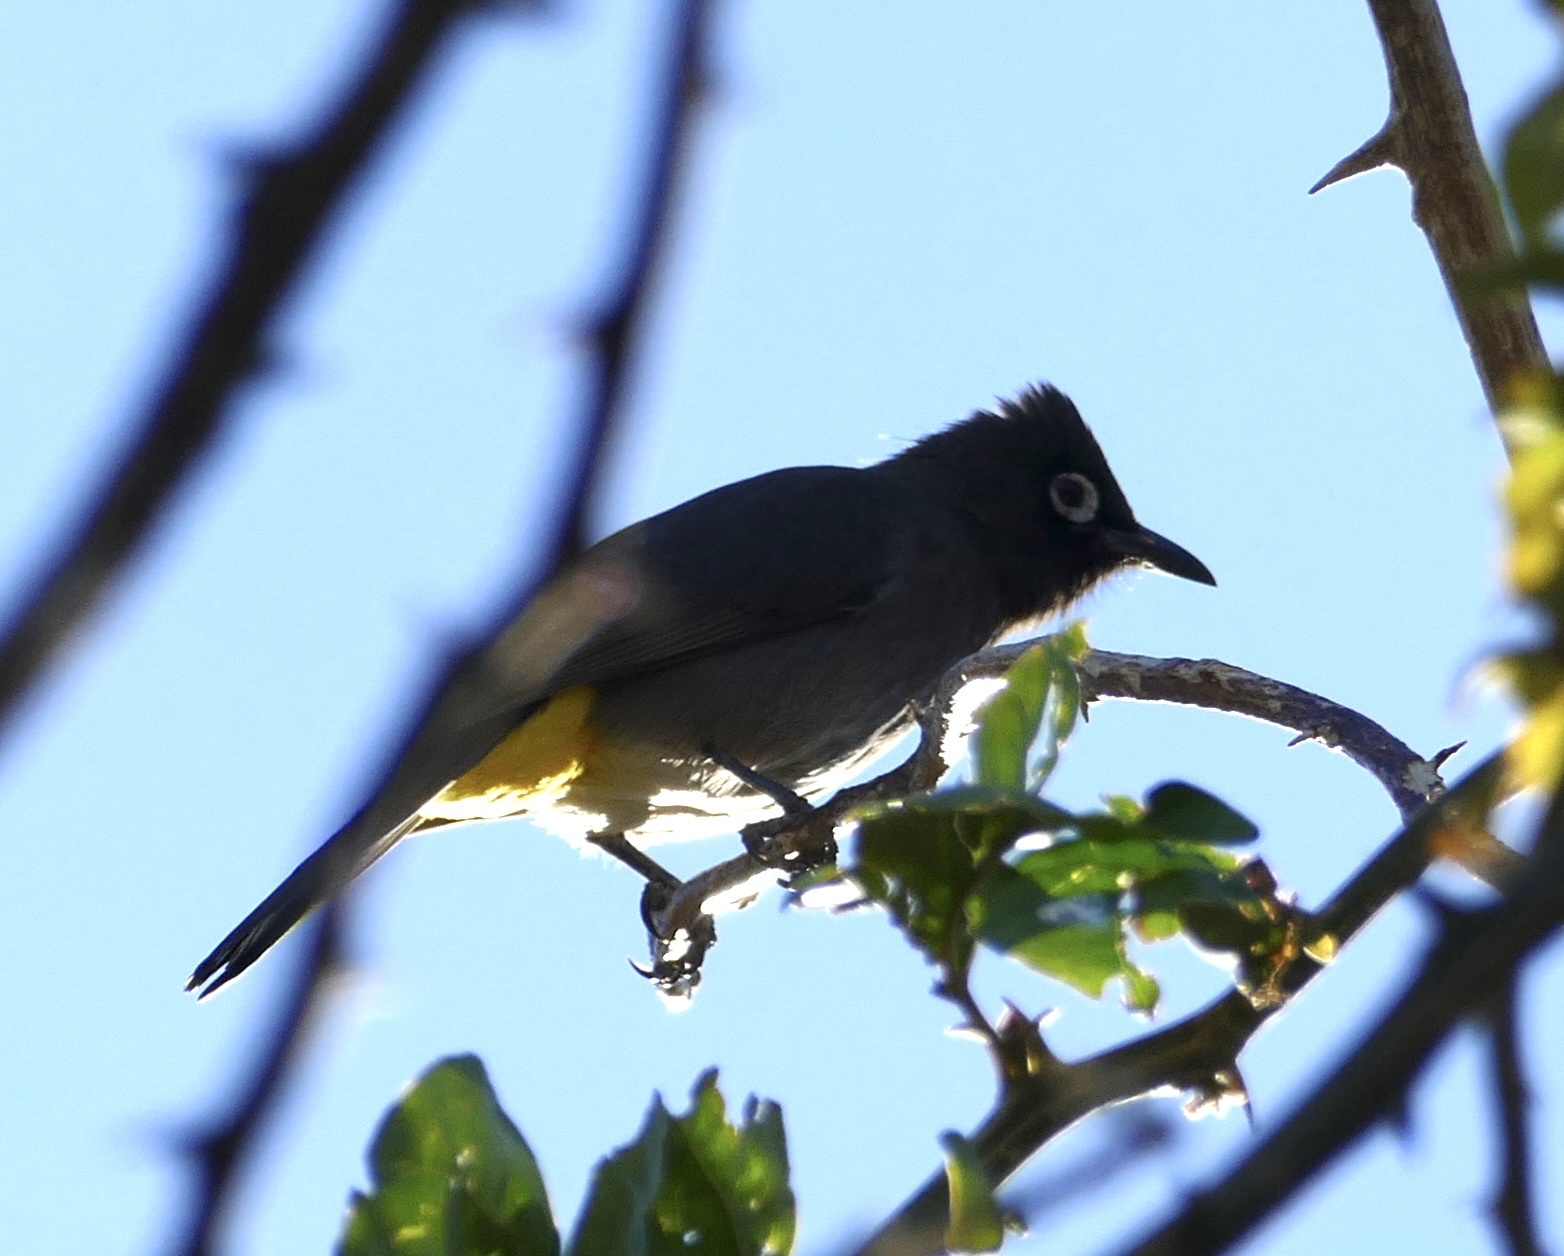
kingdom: Animalia
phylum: Chordata
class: Aves
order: Passeriformes
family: Pycnonotidae
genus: Pycnonotus
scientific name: Pycnonotus capensis
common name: Cape bulbul
